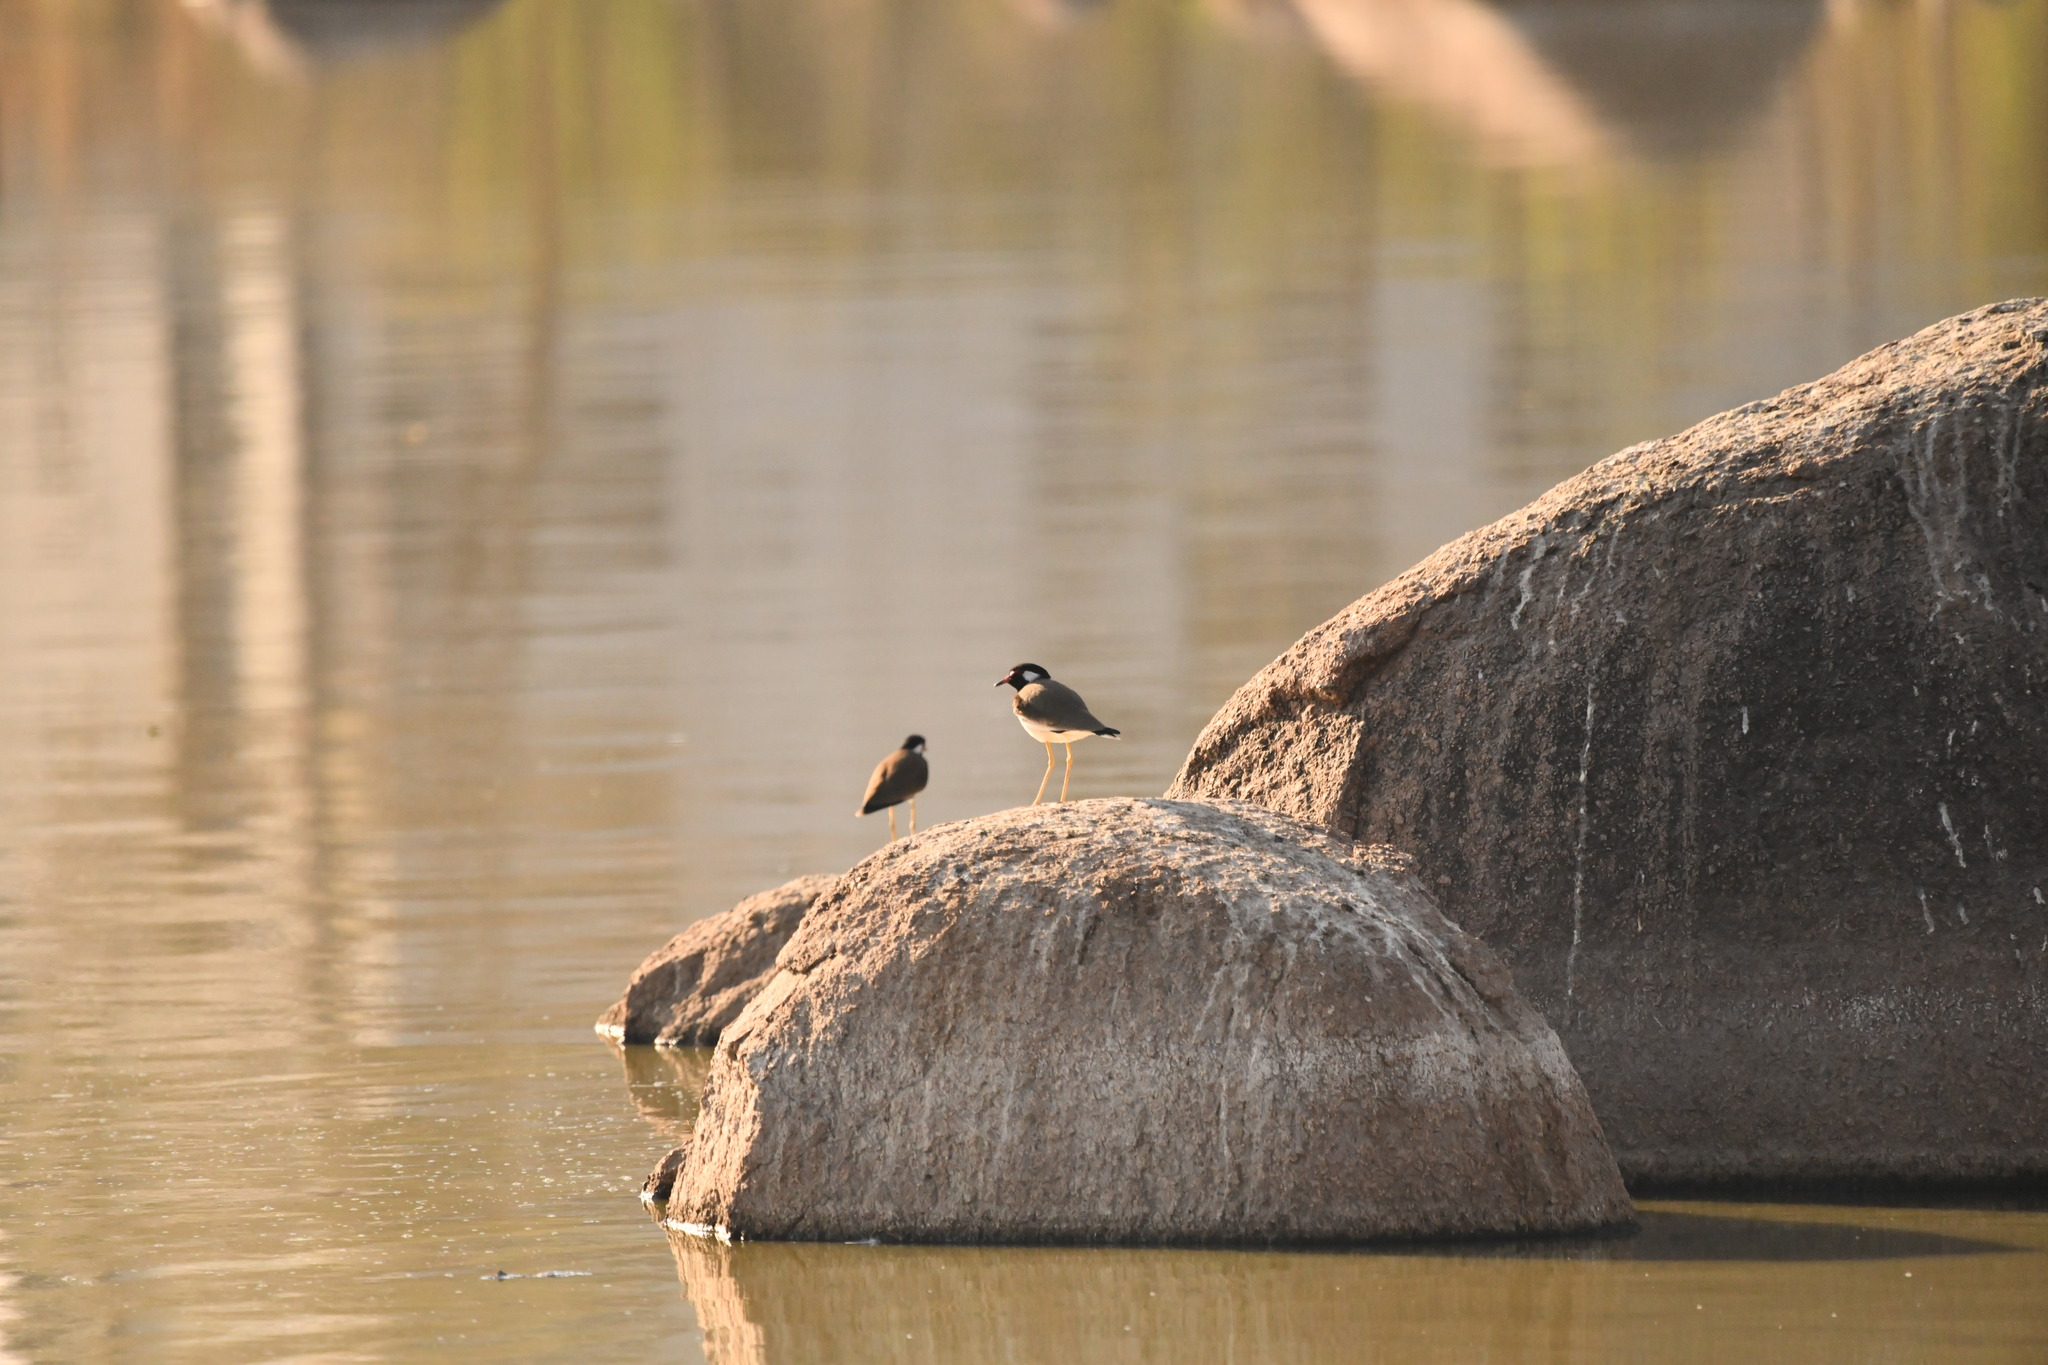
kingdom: Animalia
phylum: Chordata
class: Aves
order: Charadriiformes
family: Charadriidae
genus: Vanellus
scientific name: Vanellus indicus
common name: Red-wattled lapwing
